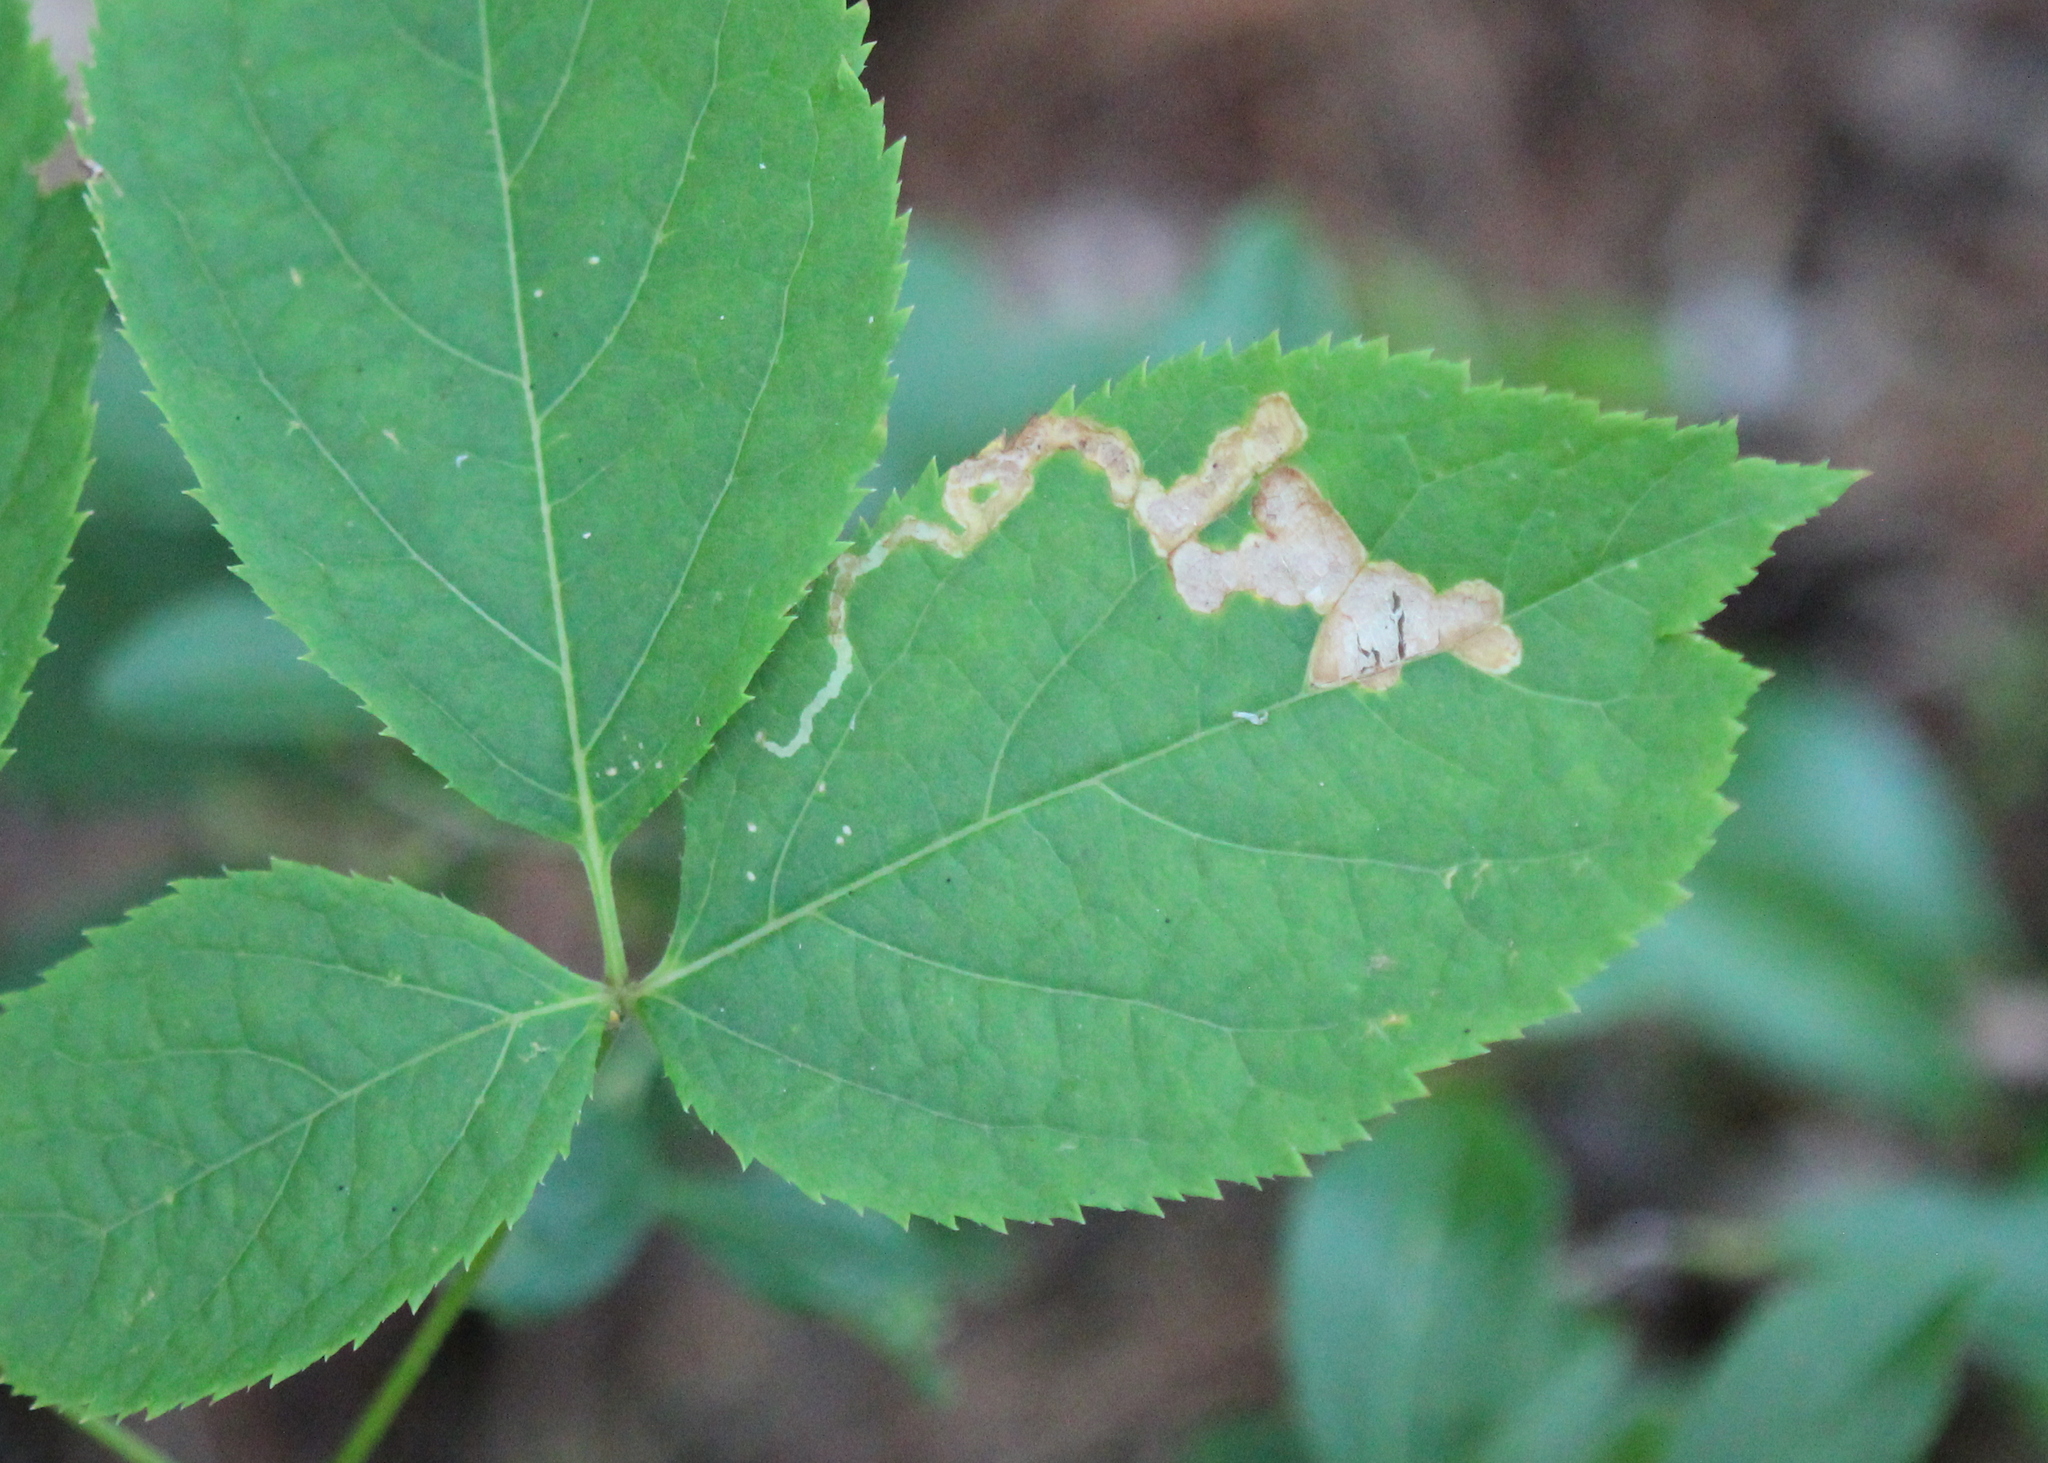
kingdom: Animalia
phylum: Arthropoda
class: Insecta
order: Diptera
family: Agromyzidae
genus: Phytomyza
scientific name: Phytomyza aralivora
